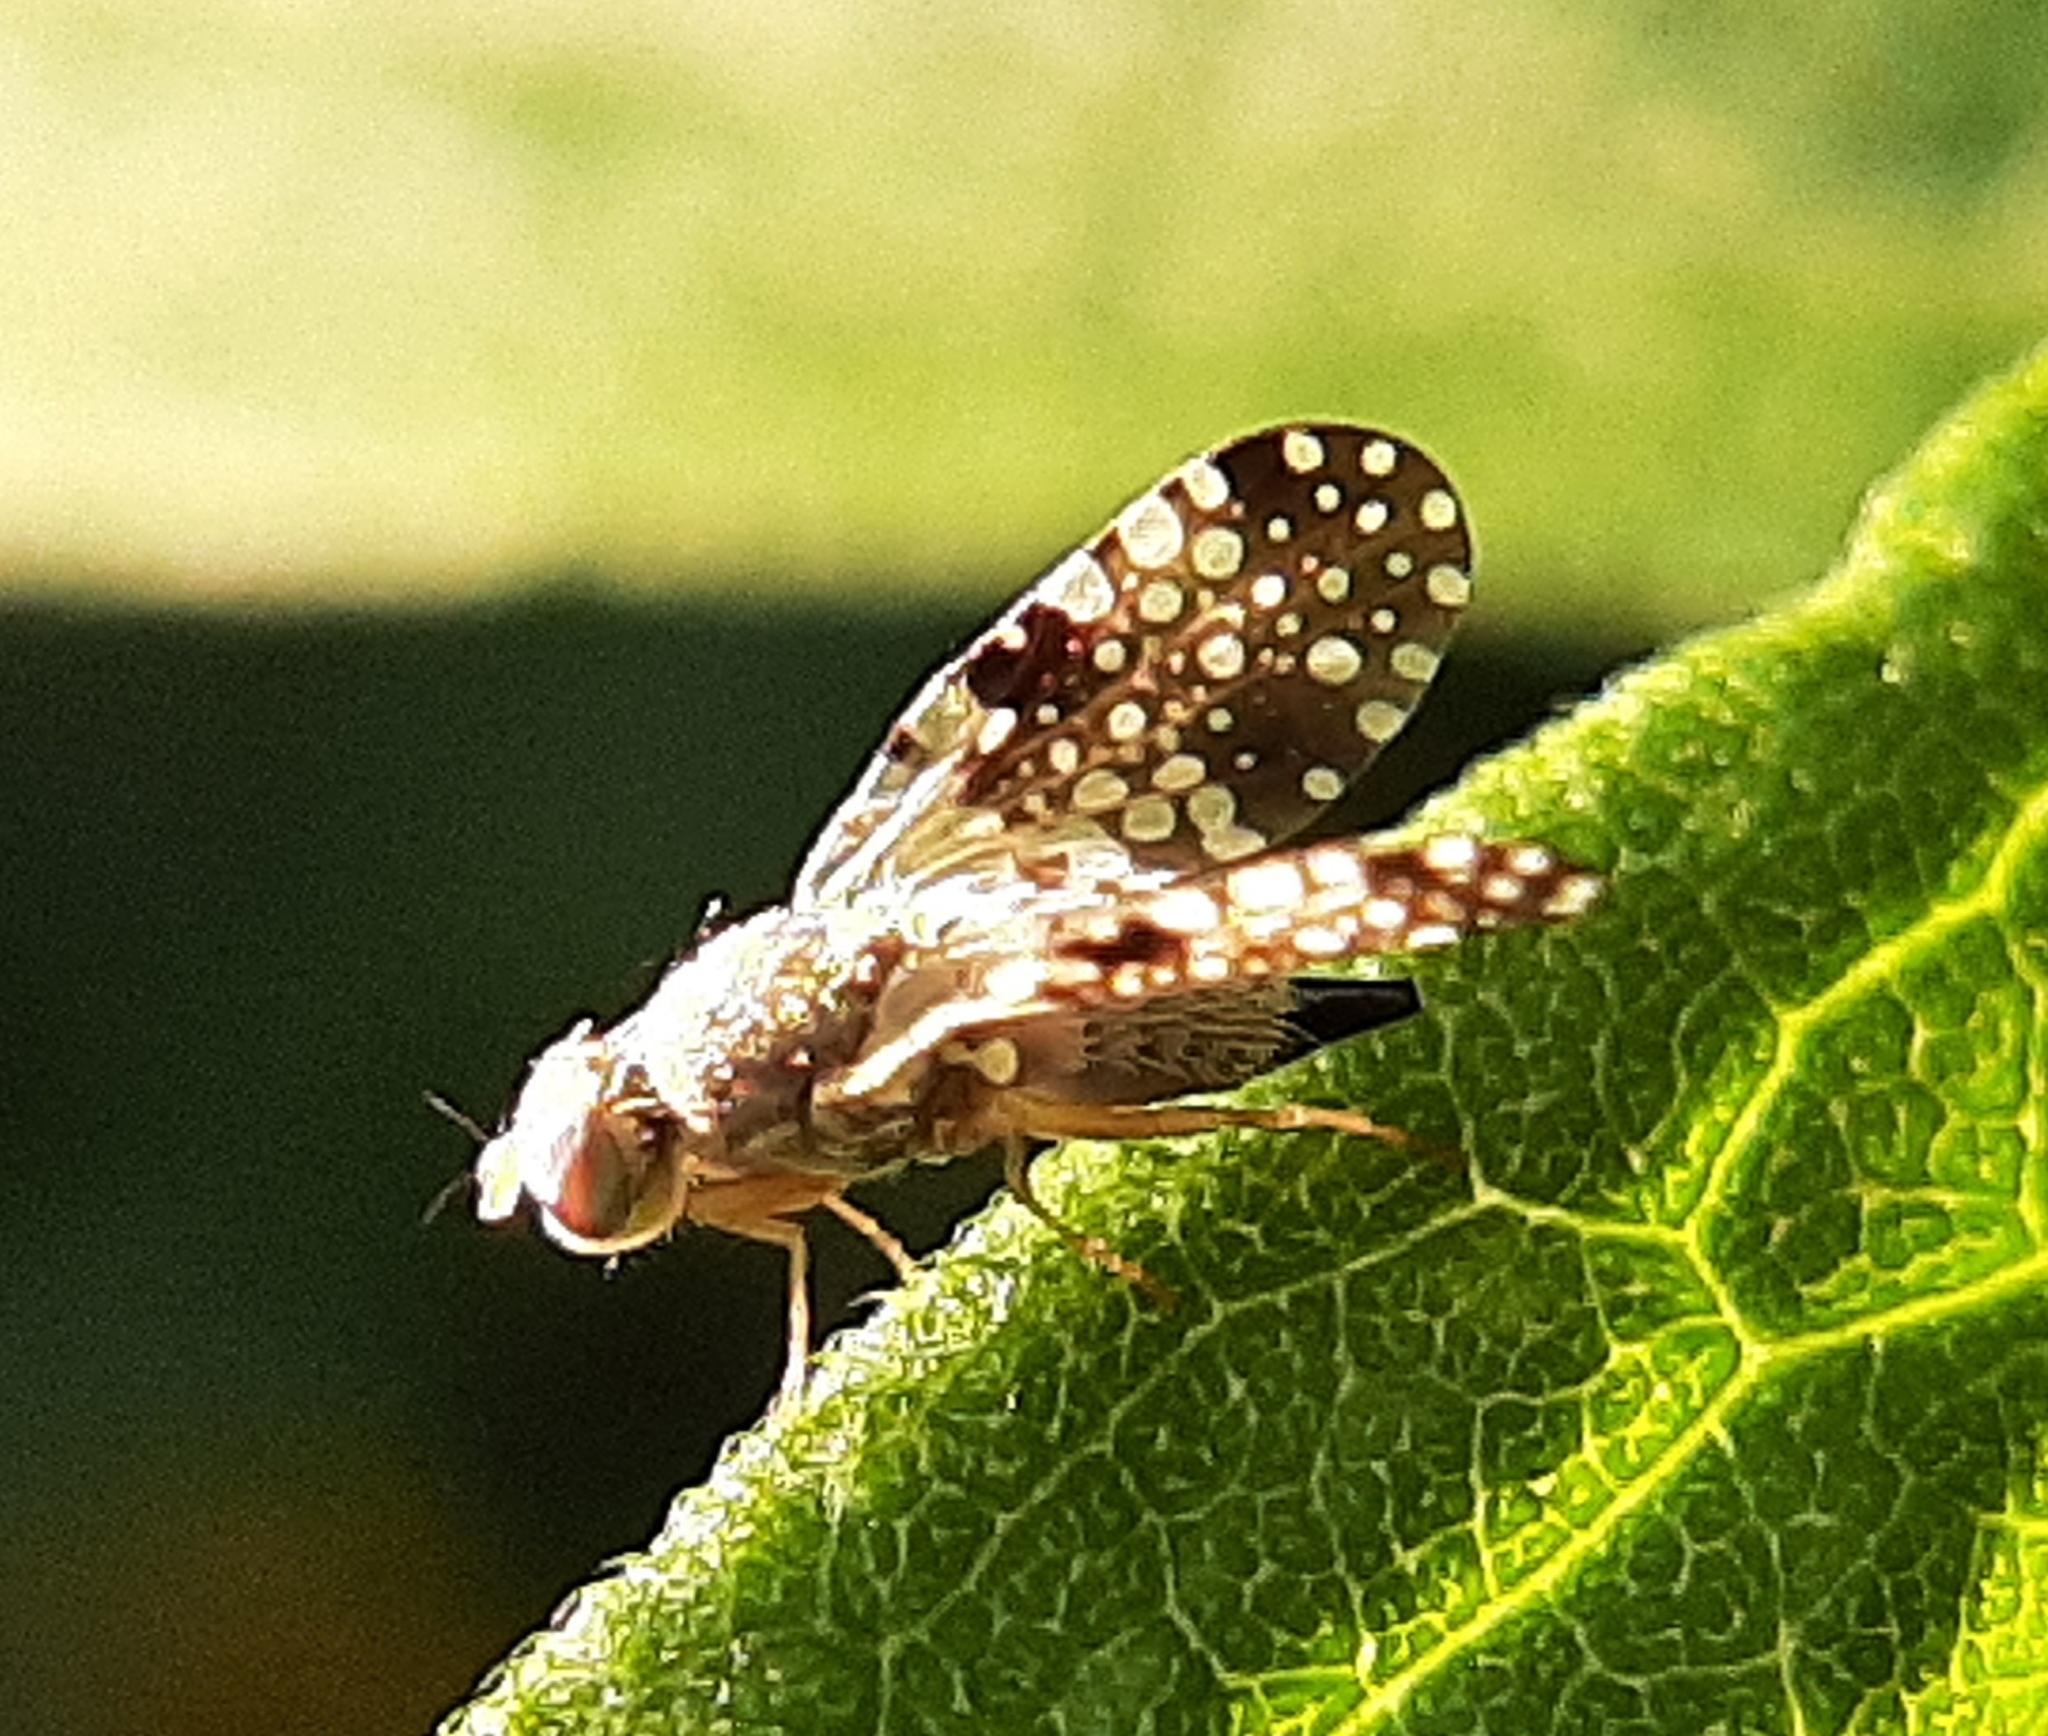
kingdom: Animalia
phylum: Arthropoda
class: Insecta
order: Diptera
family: Tephritidae
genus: Campiglossa
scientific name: Campiglossa albiceps
